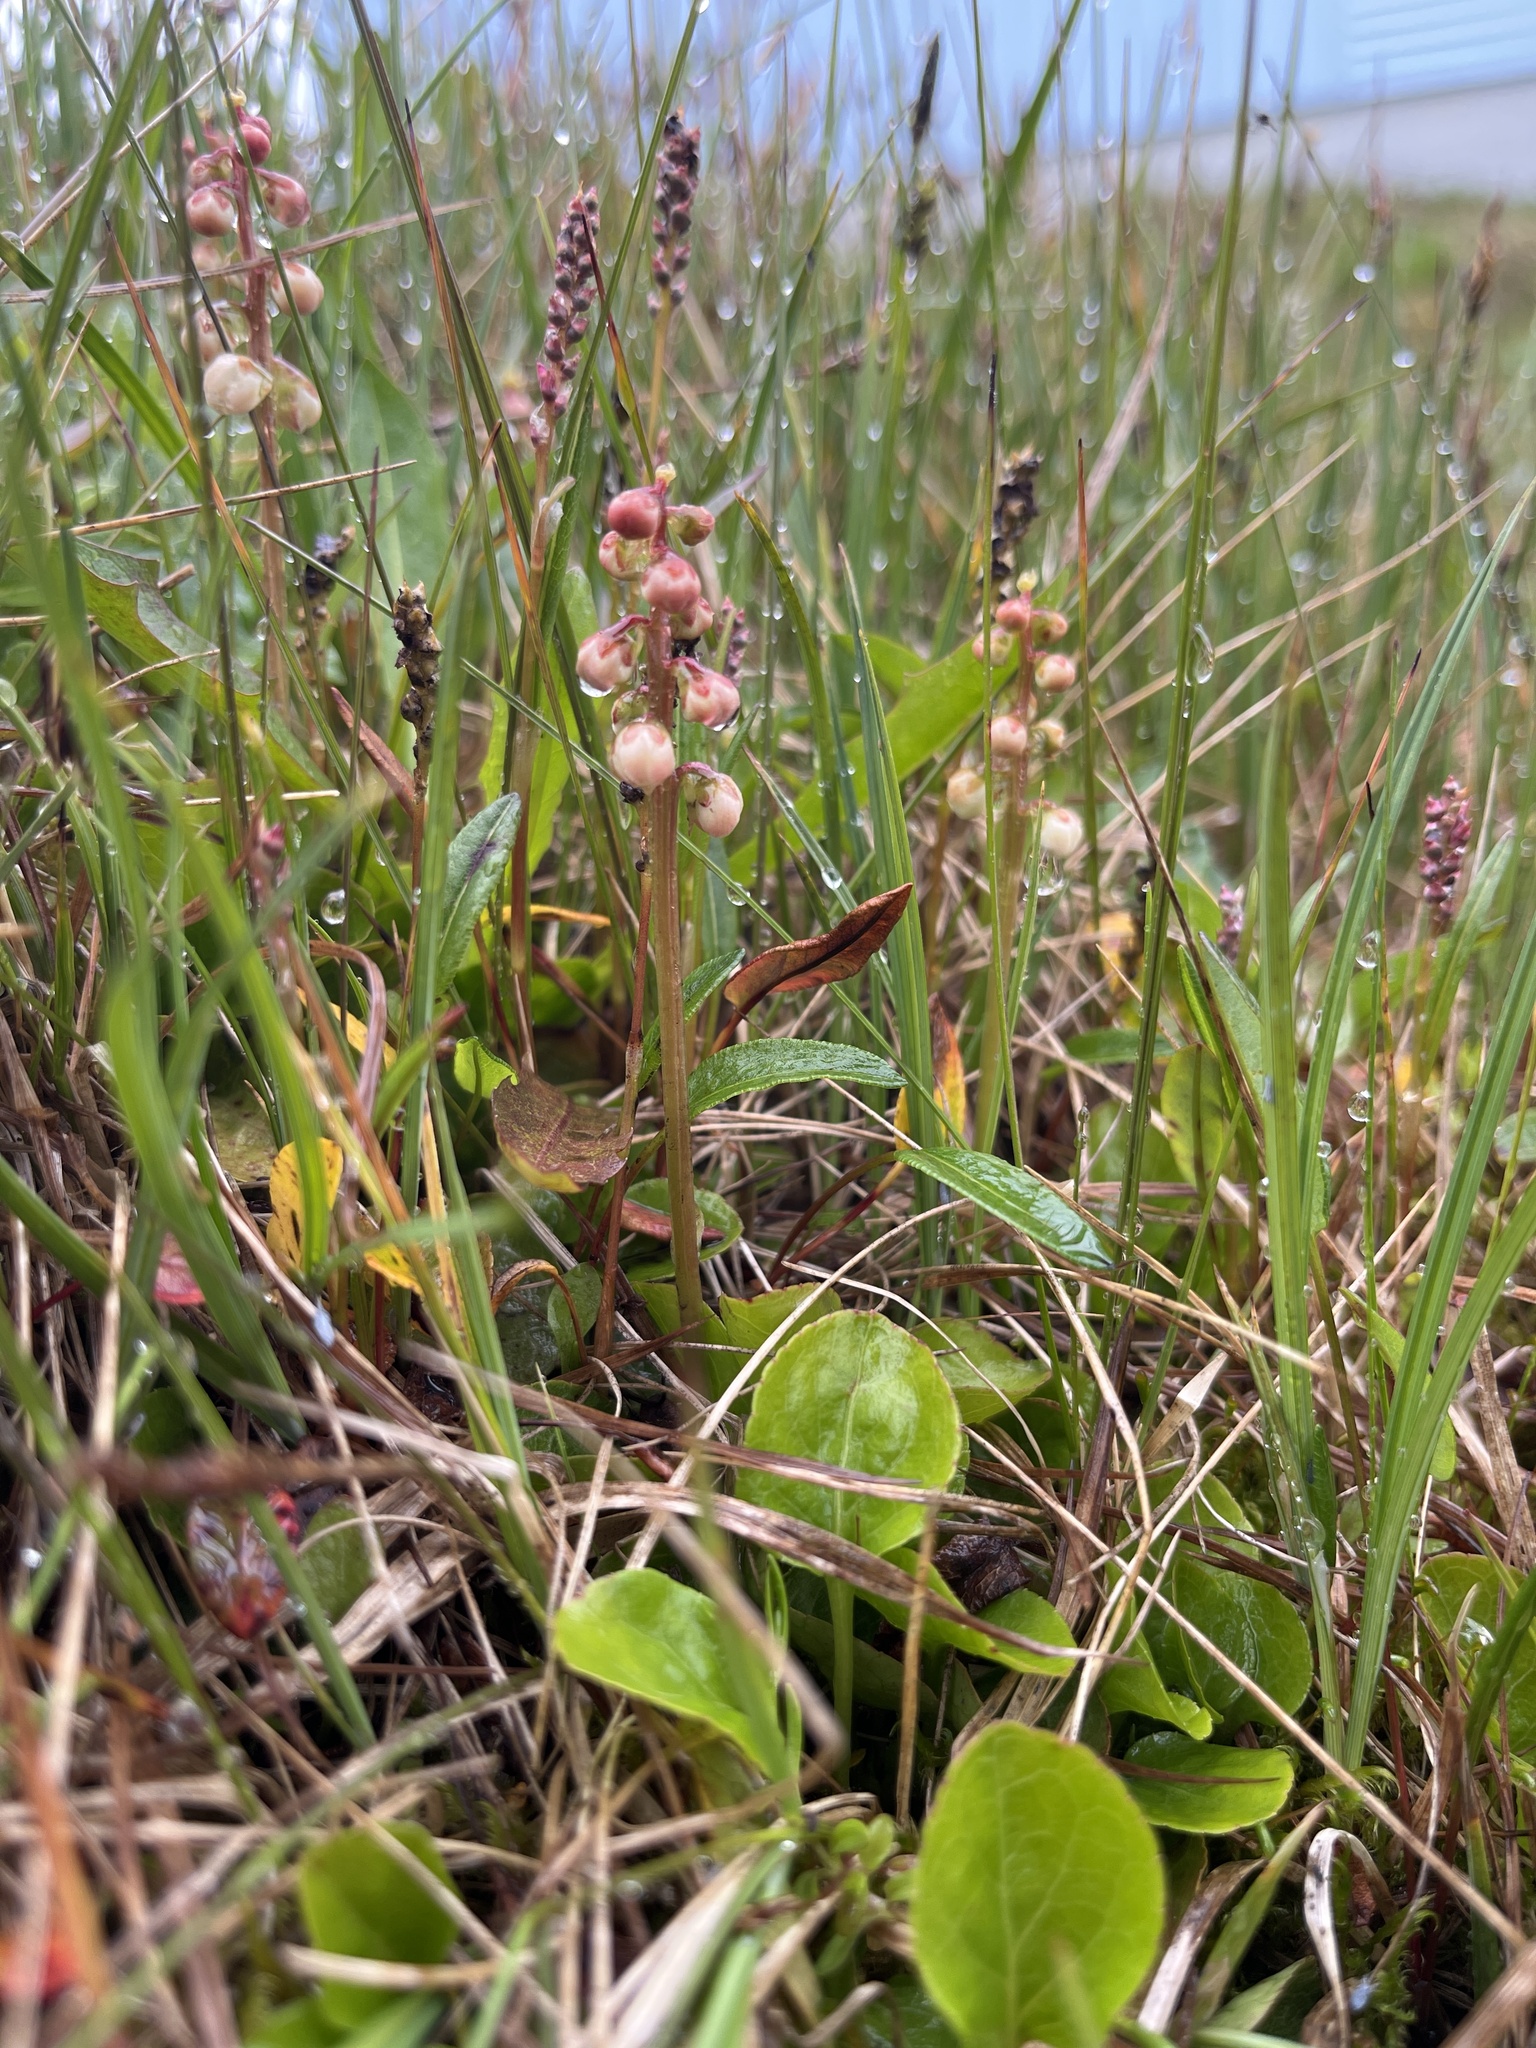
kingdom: Plantae
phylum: Tracheophyta
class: Magnoliopsida
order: Ericales
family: Ericaceae
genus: Pyrola
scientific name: Pyrola minor
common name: Common wintergreen
